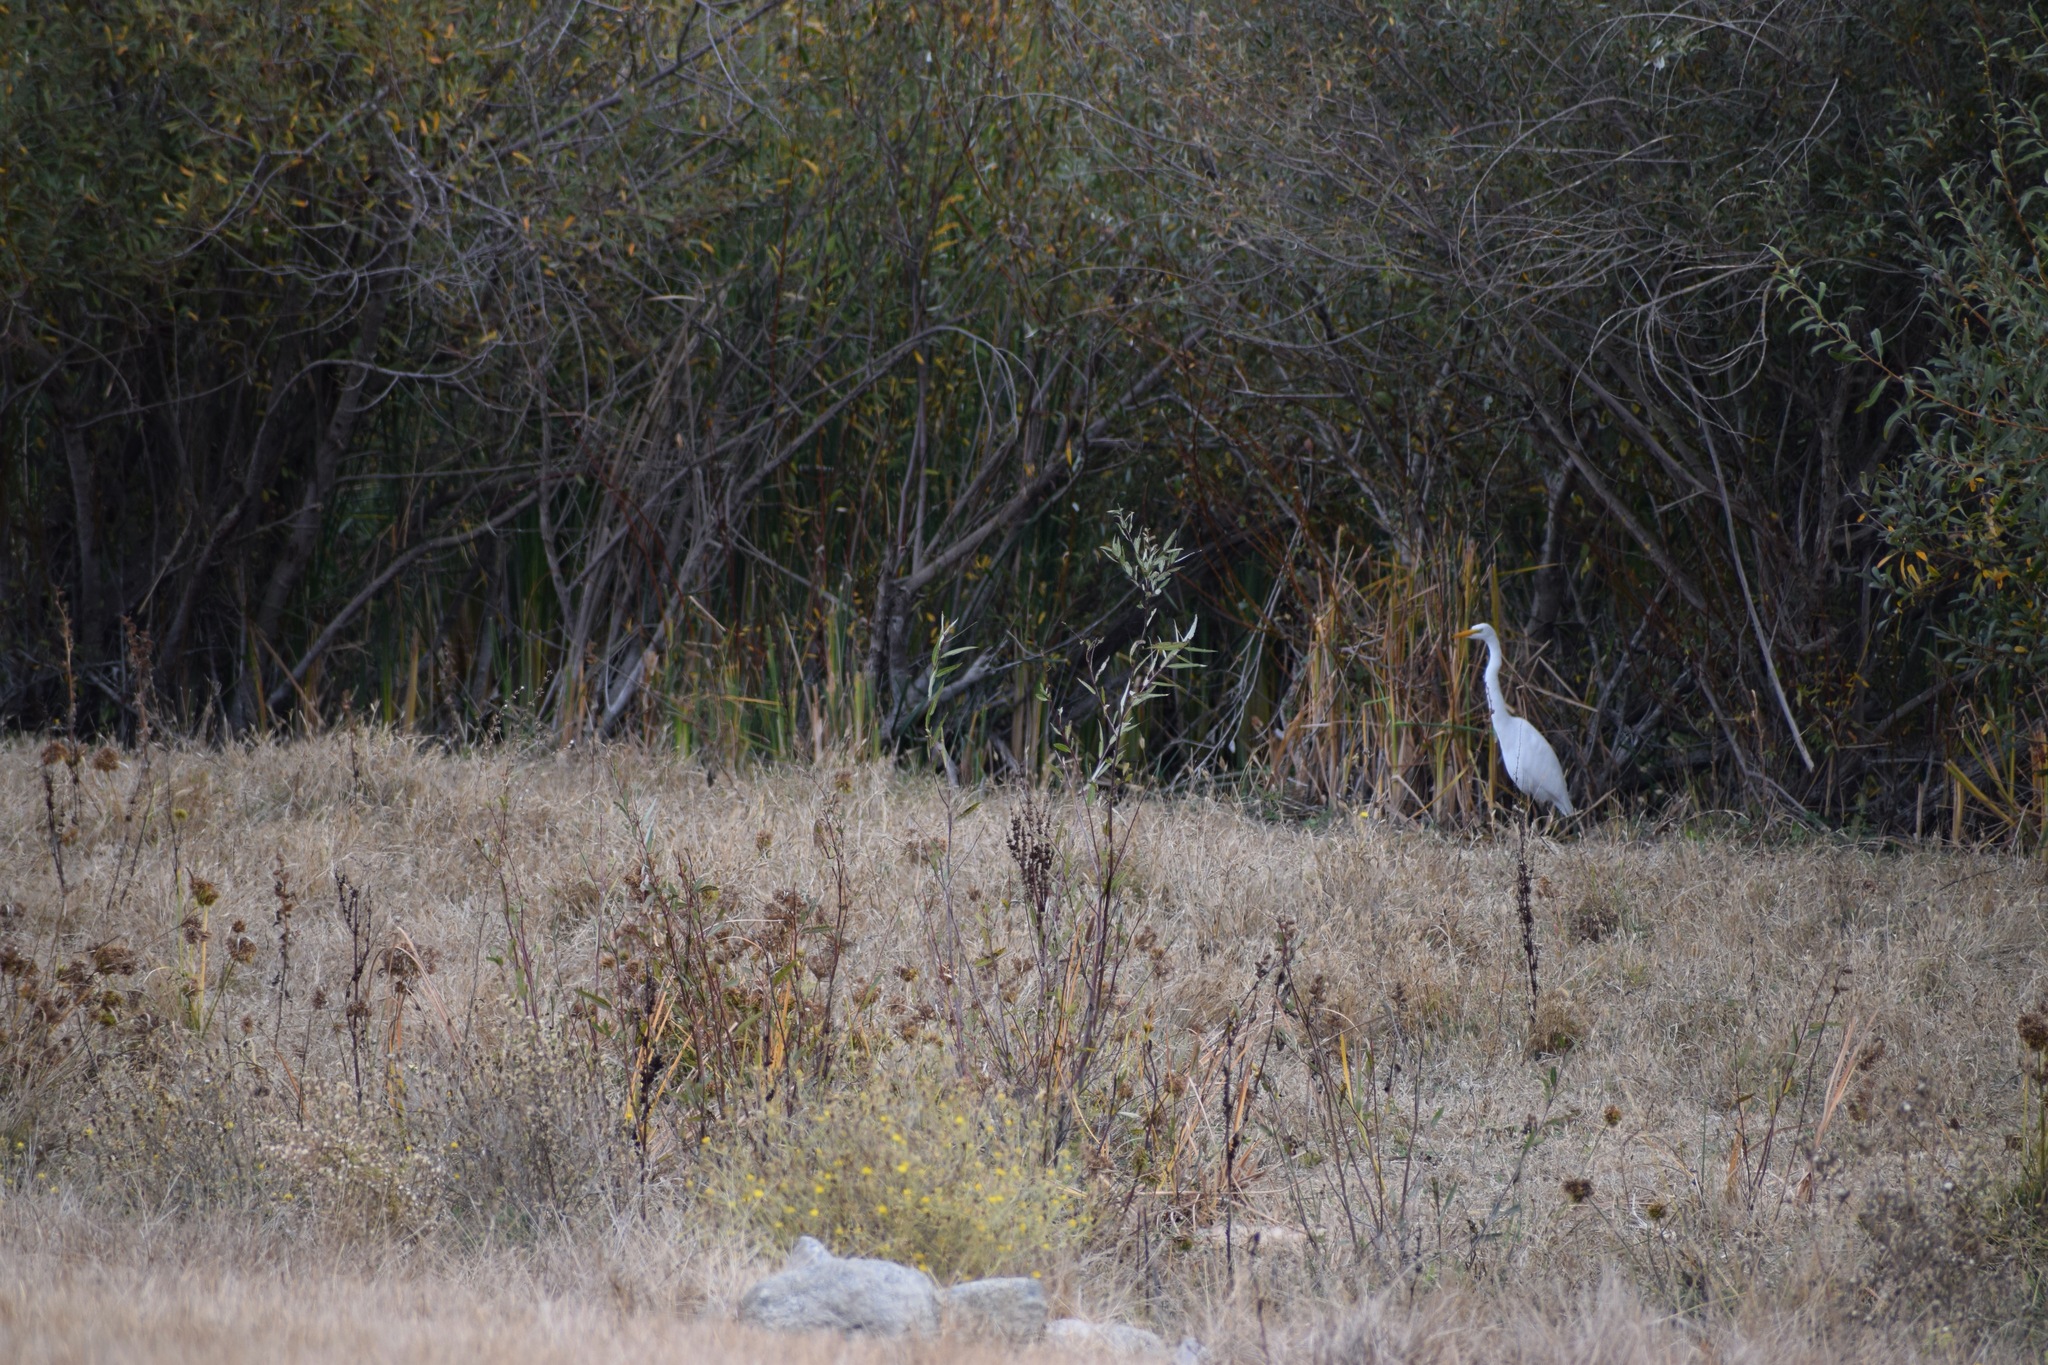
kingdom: Animalia
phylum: Chordata
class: Aves
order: Pelecaniformes
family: Ardeidae
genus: Ardea
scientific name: Ardea alba
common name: Great egret
